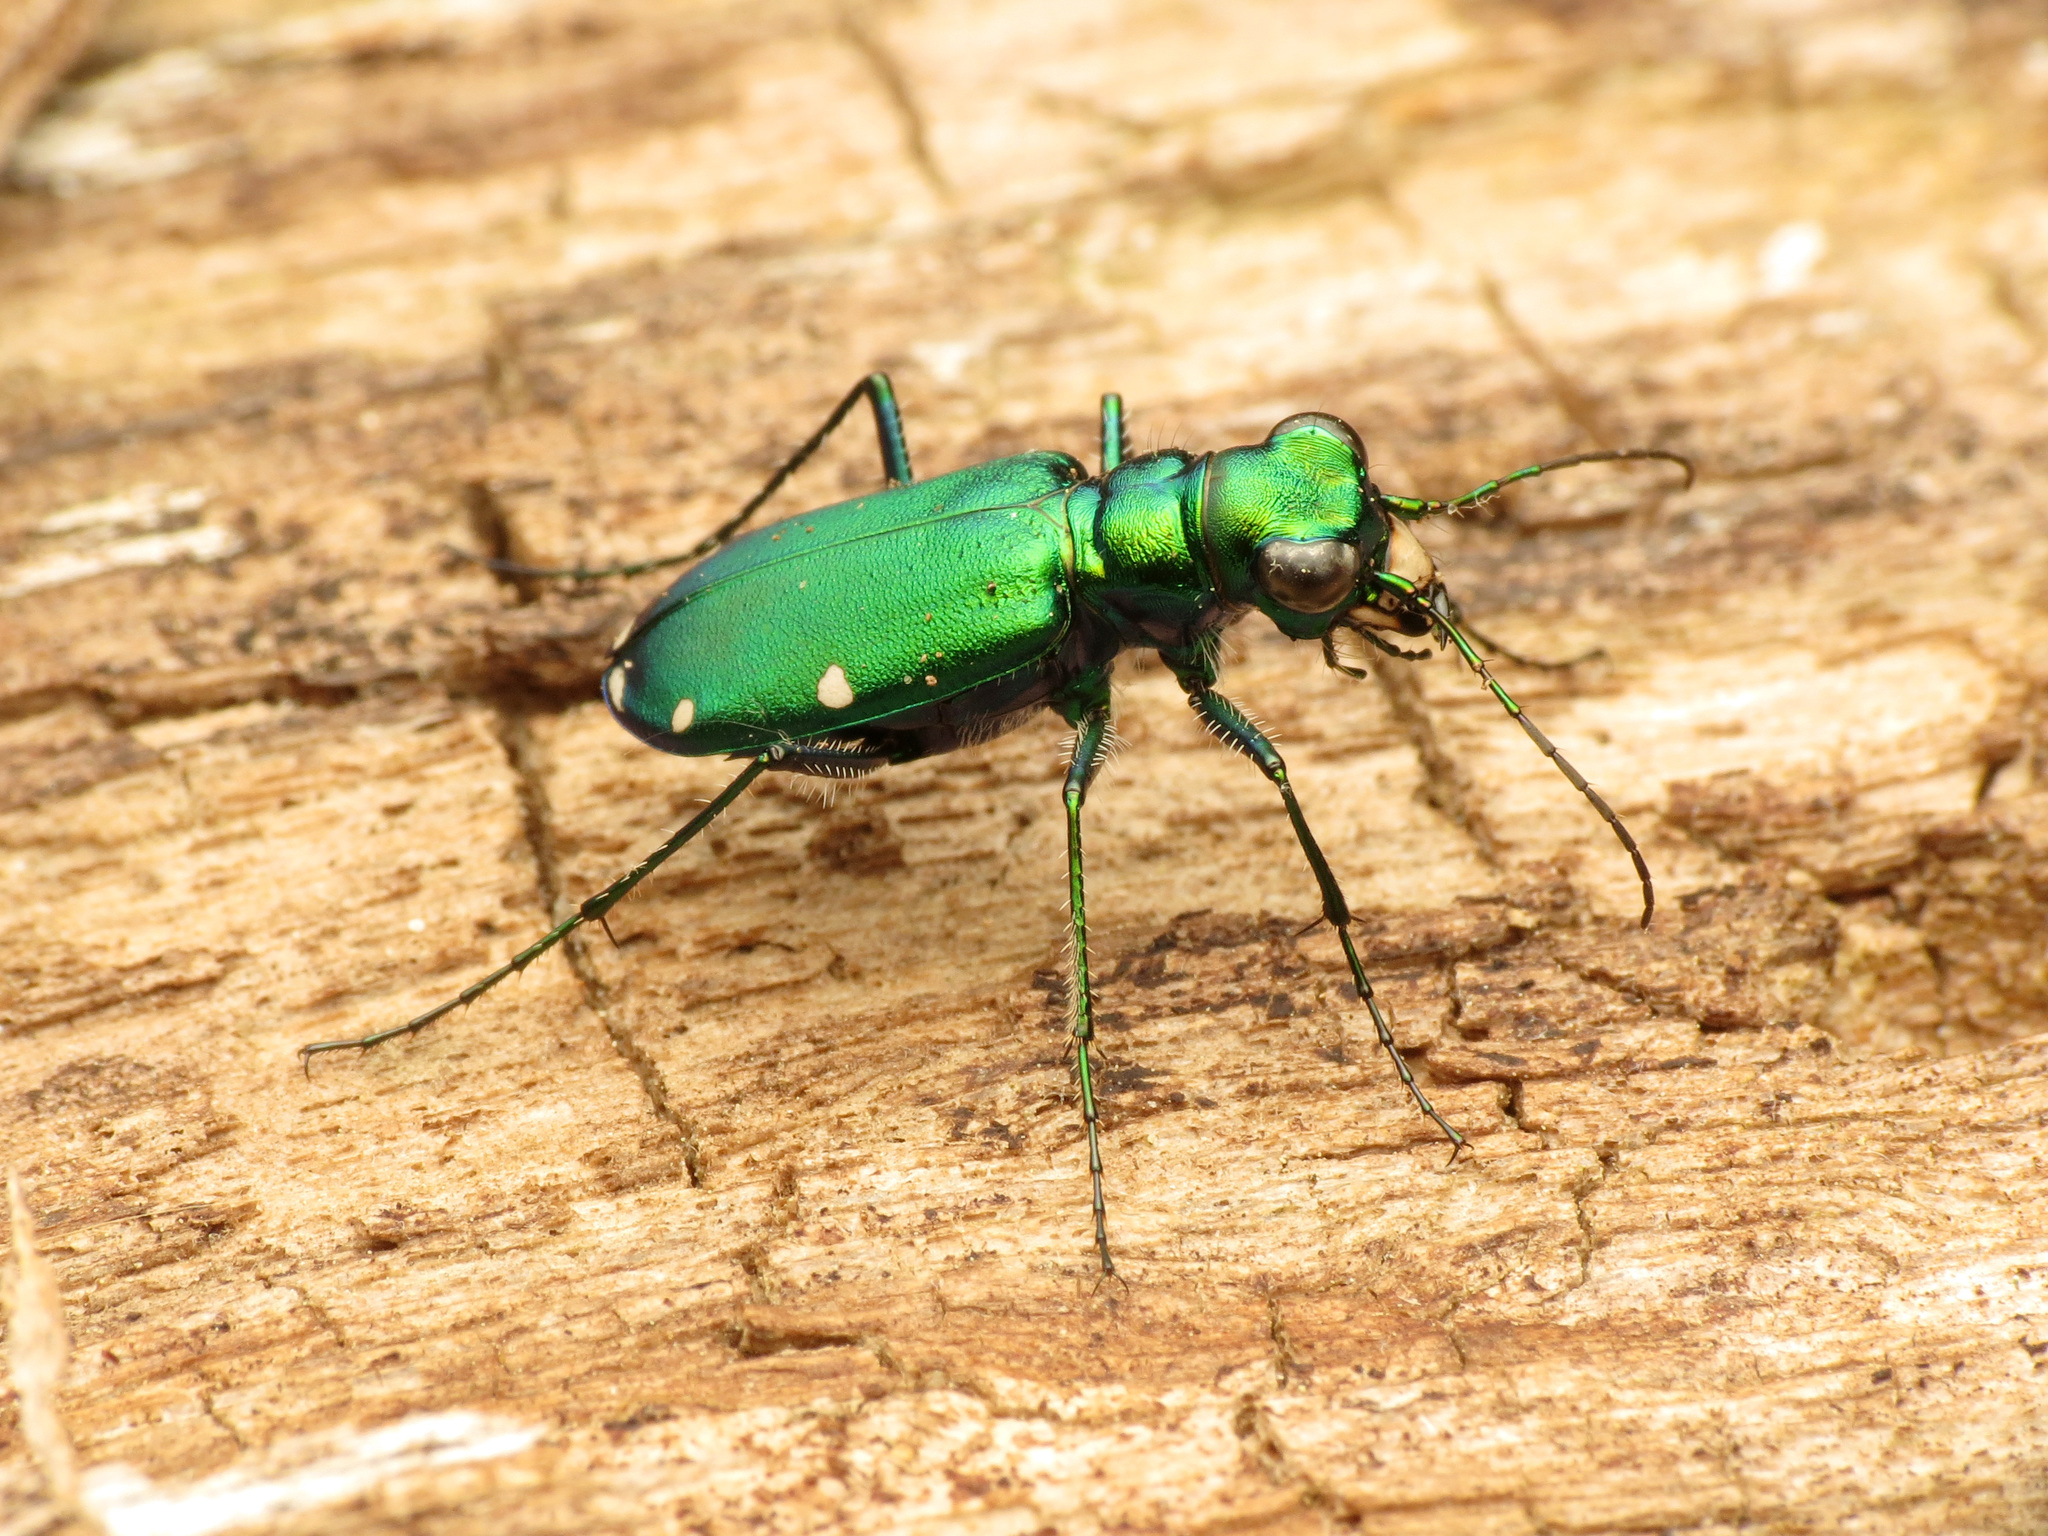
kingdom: Animalia
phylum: Arthropoda
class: Insecta
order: Coleoptera
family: Carabidae
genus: Cicindela
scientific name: Cicindela sexguttata
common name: Six-spotted tiger beetle
